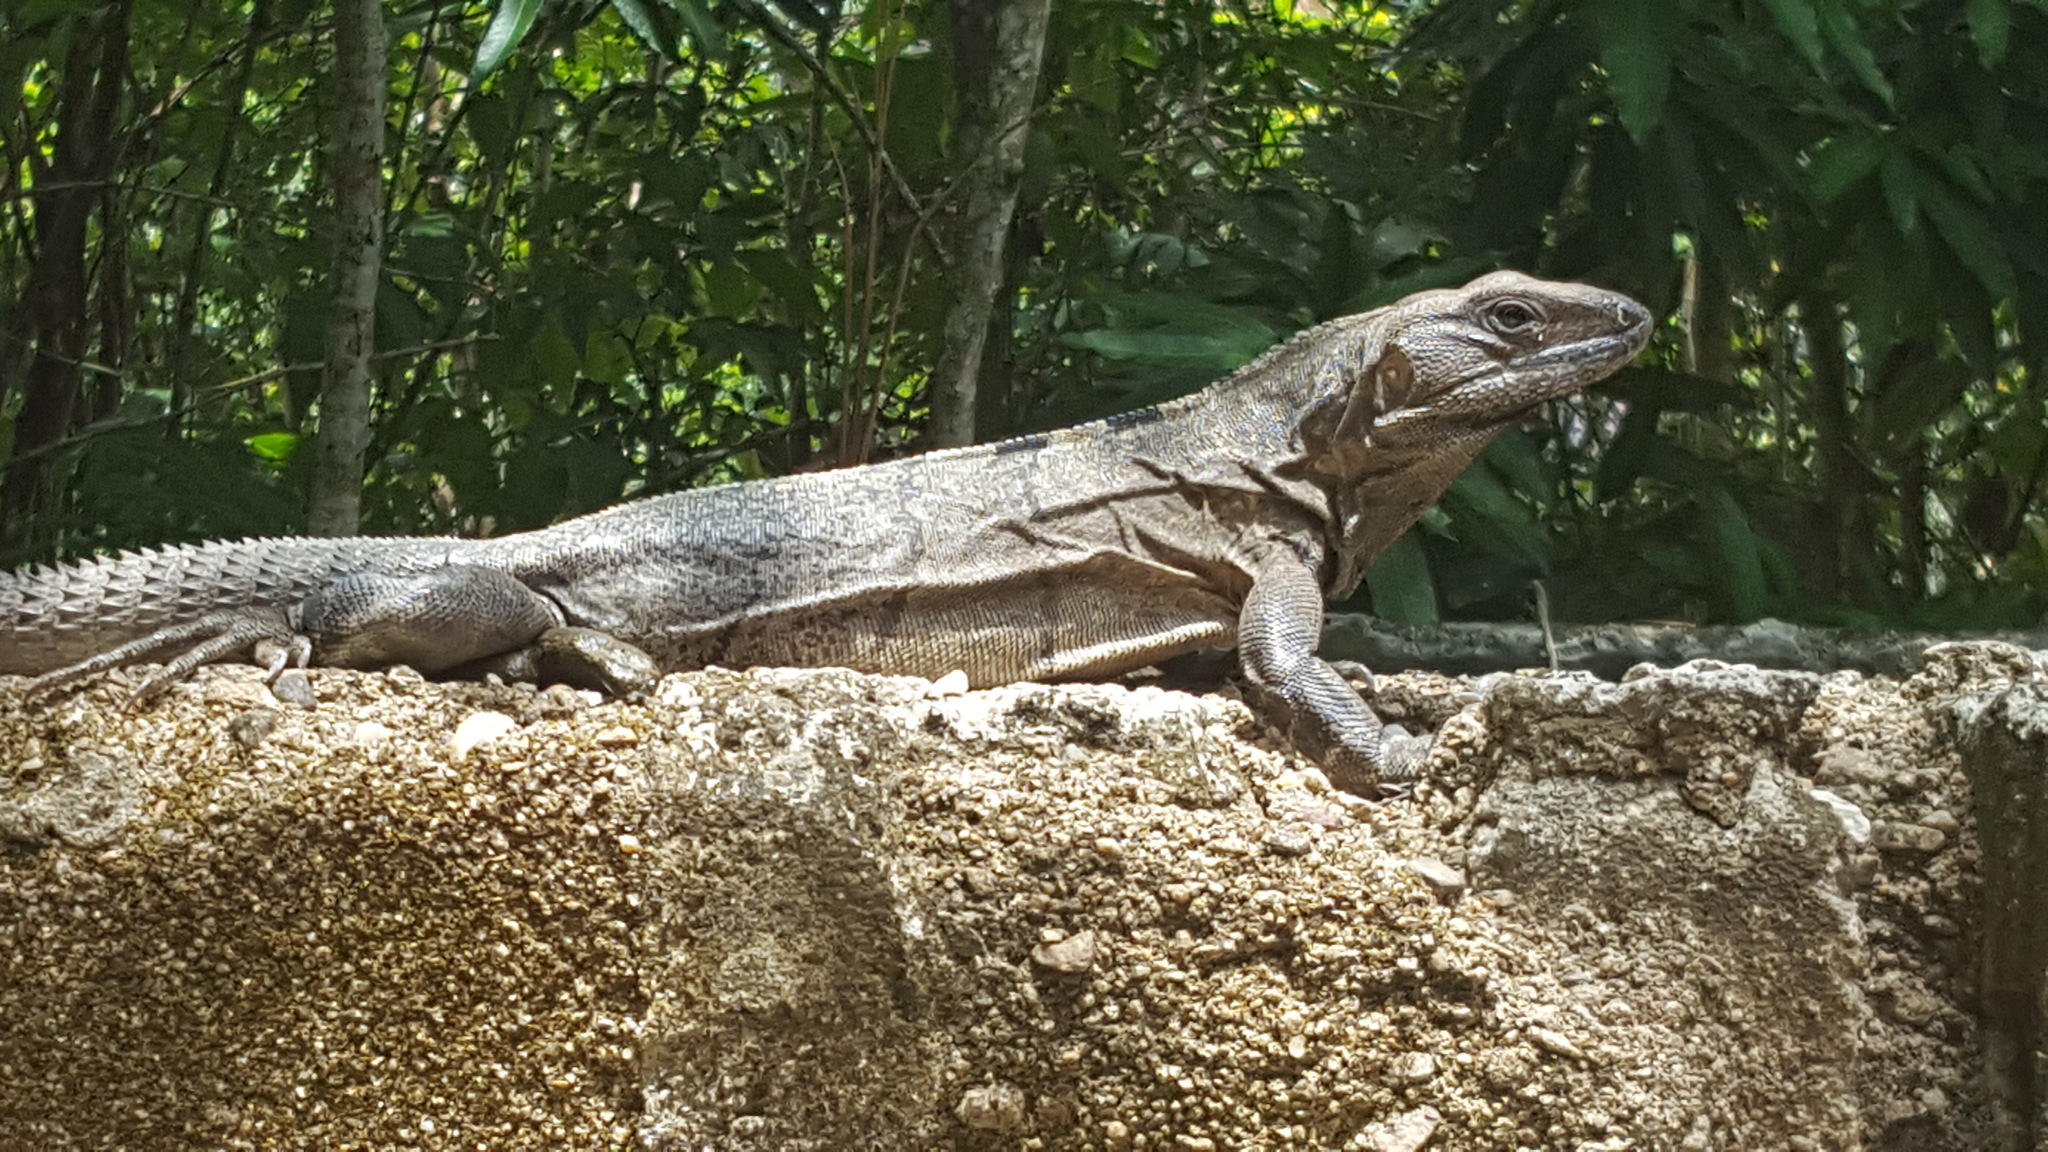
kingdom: Animalia
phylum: Chordata
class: Squamata
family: Iguanidae
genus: Ctenosaura
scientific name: Ctenosaura similis
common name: Black spiny-tailed iguana
